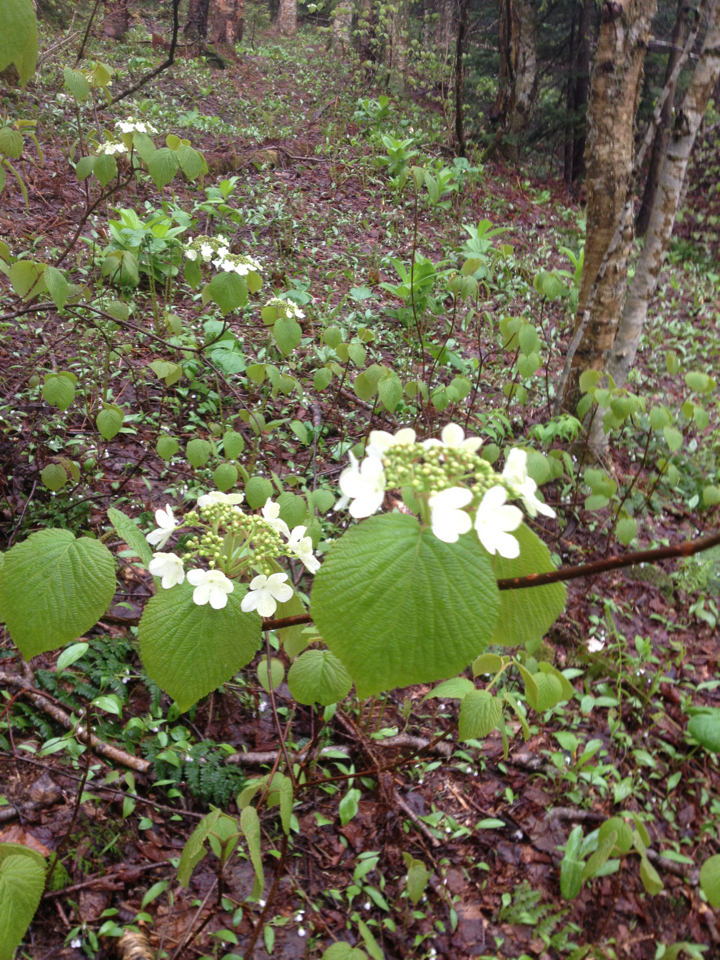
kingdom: Plantae
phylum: Tracheophyta
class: Magnoliopsida
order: Dipsacales
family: Viburnaceae
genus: Viburnum
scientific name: Viburnum lantanoides
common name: Hobblebush
